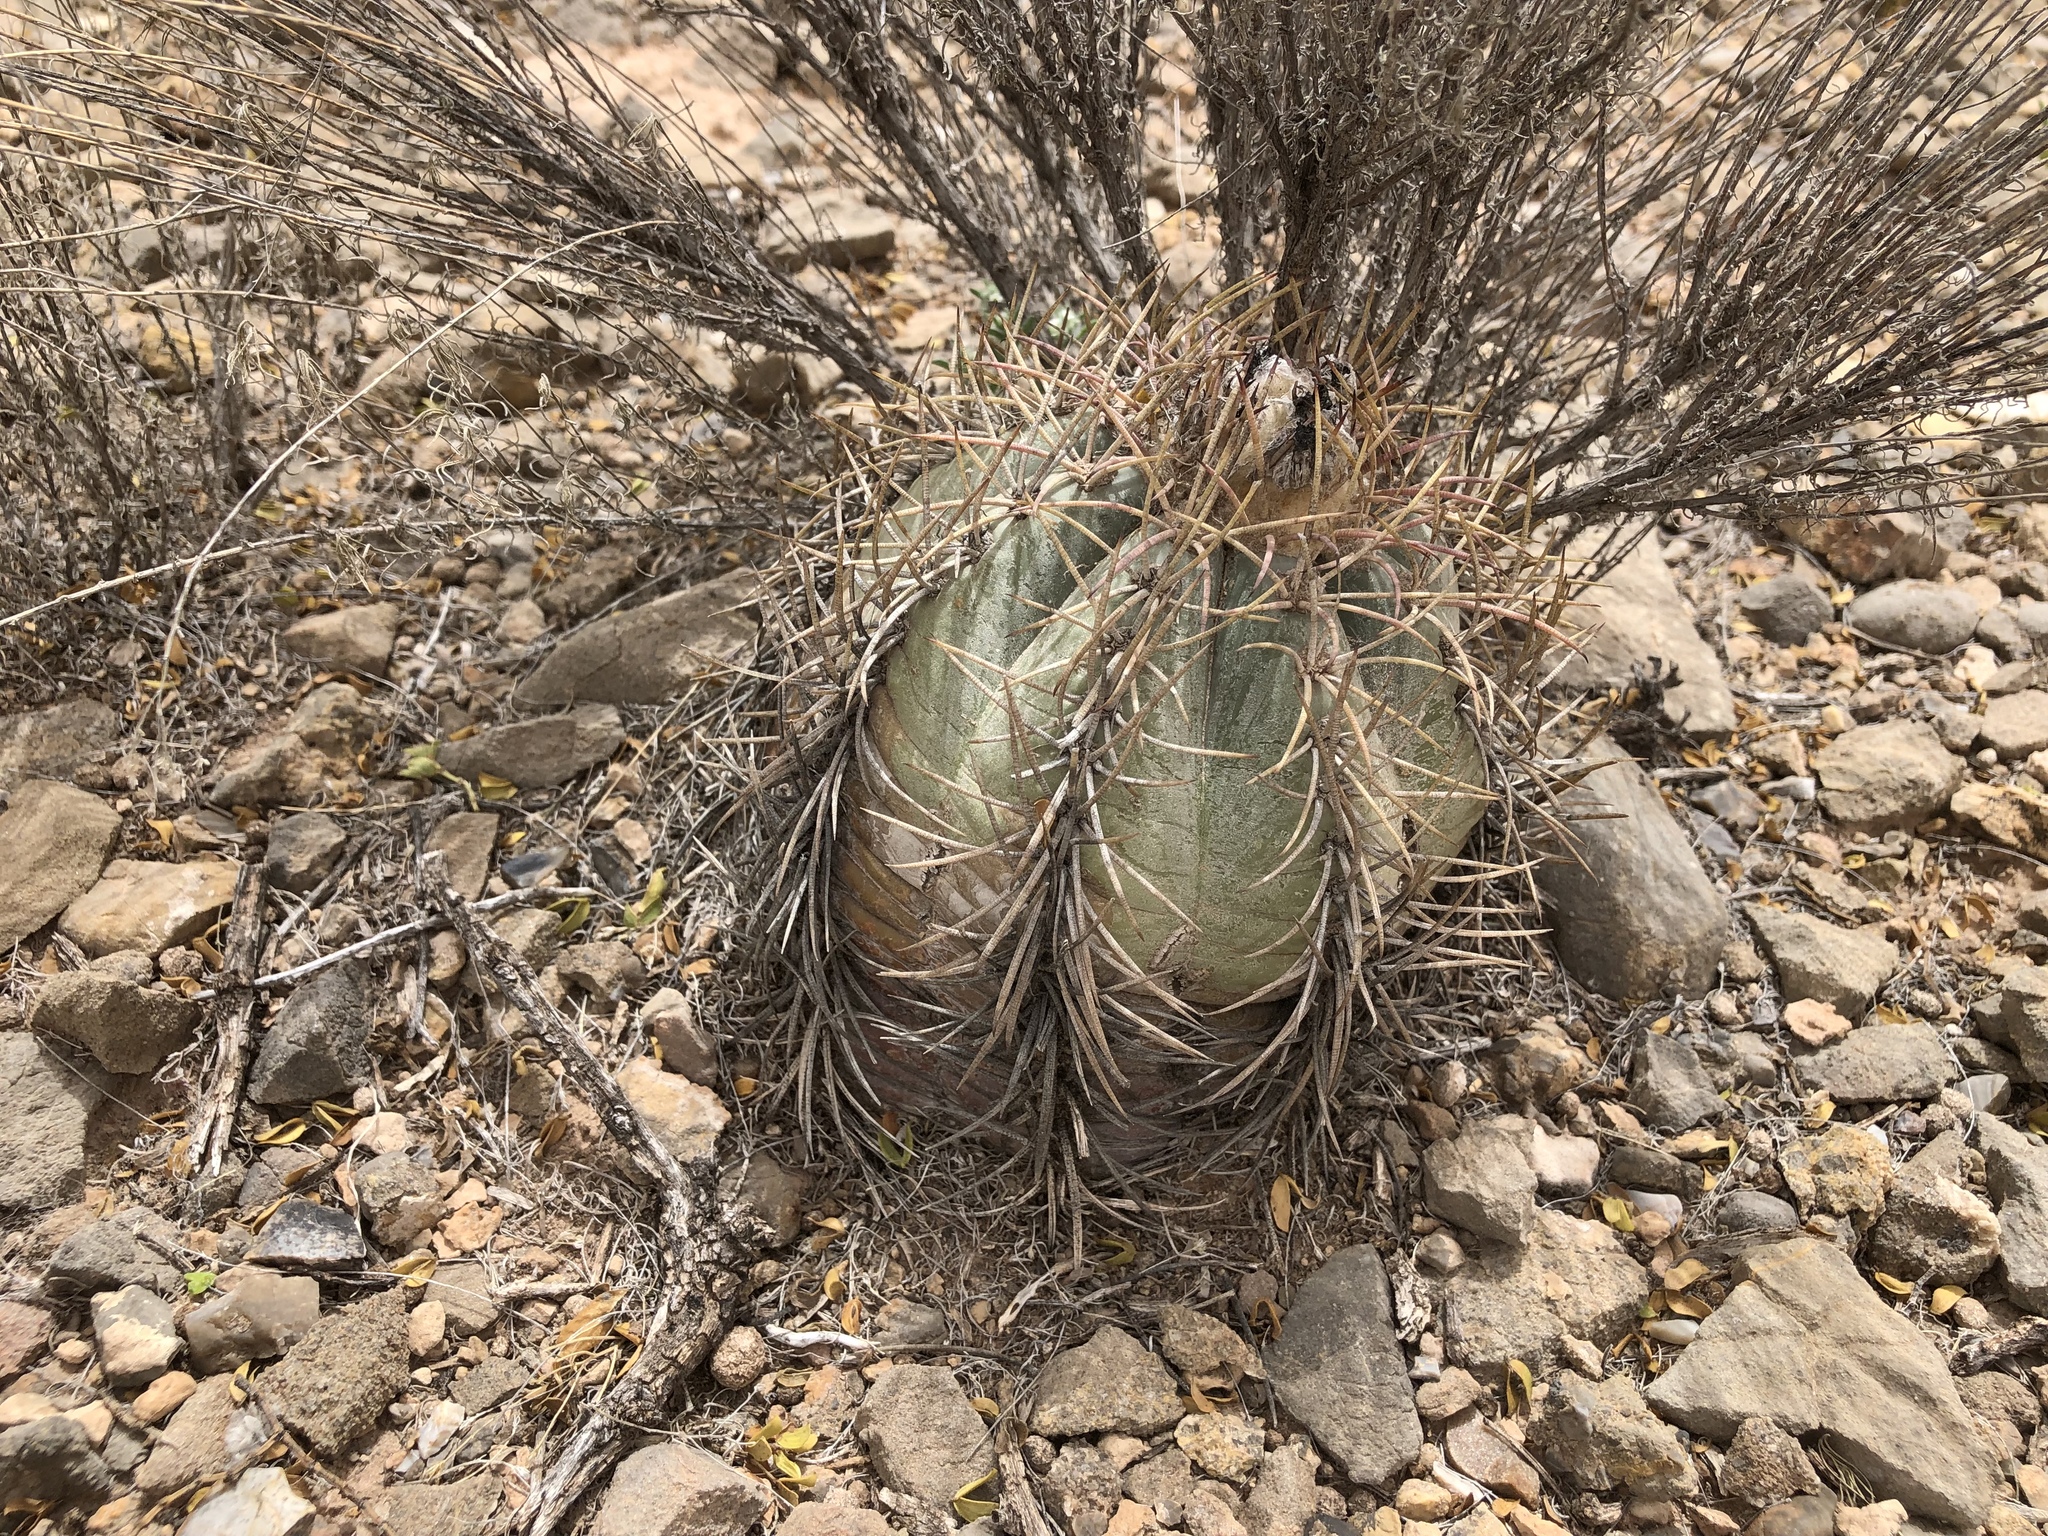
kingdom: Plantae
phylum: Tracheophyta
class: Magnoliopsida
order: Caryophyllales
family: Cactaceae
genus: Echinocactus
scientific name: Echinocactus horizonthalonius
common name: Devilshead
